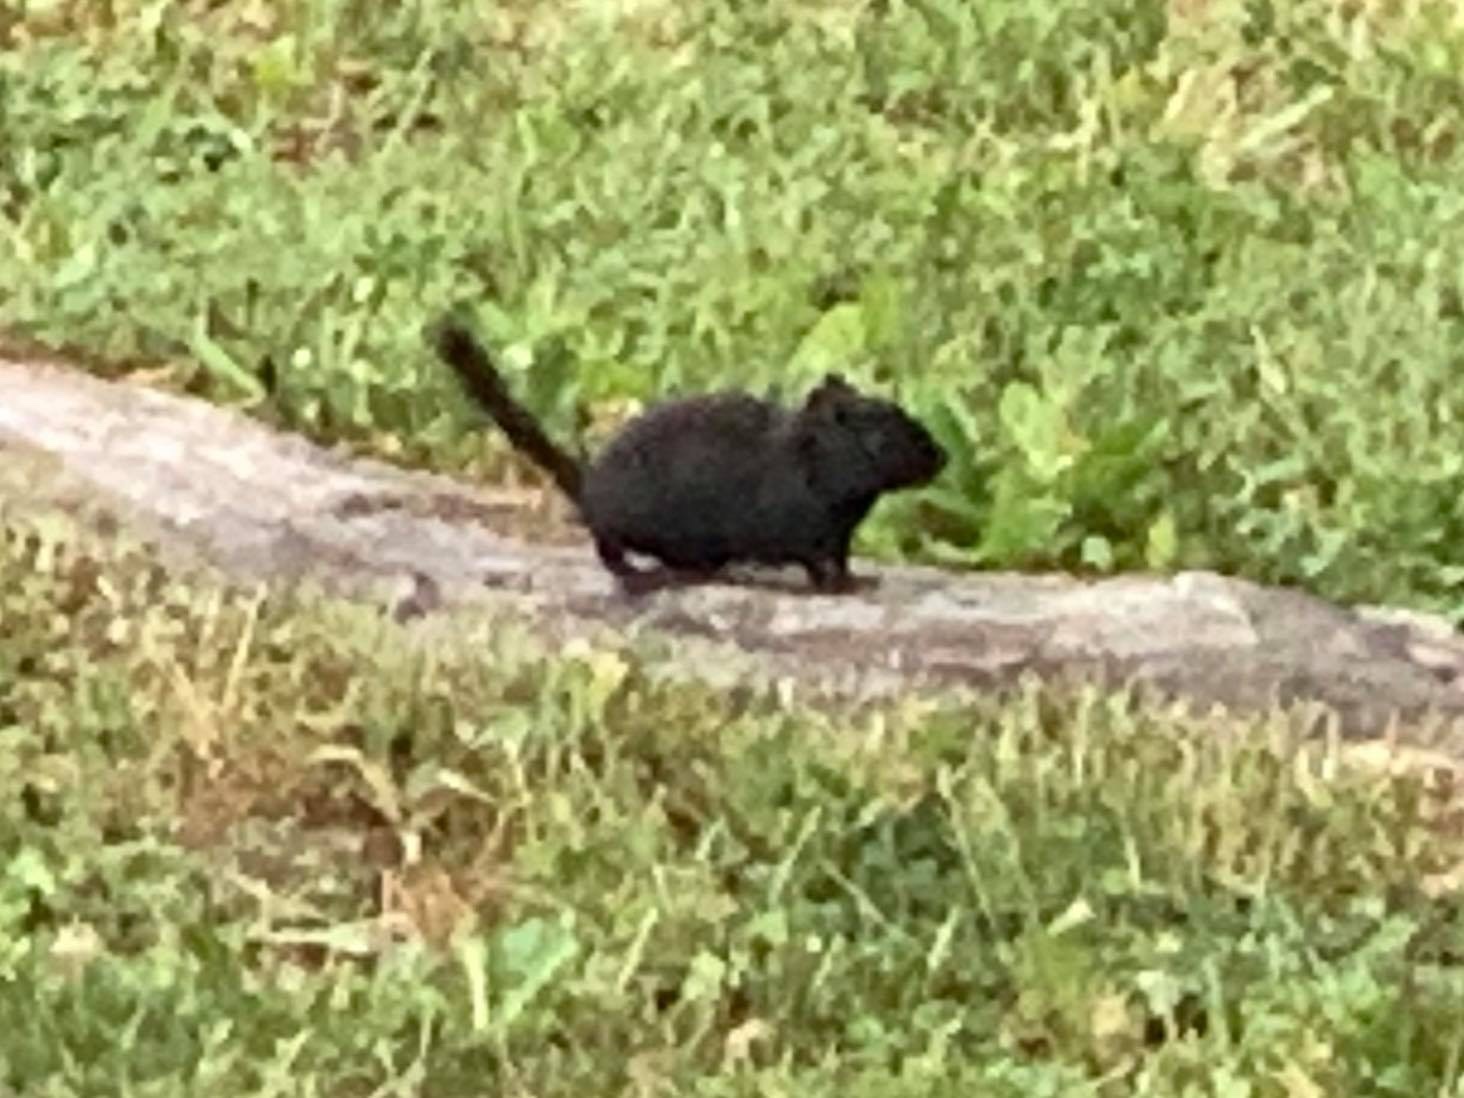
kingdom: Animalia
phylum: Chordata
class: Mammalia
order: Rodentia
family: Sciuridae
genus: Tamias
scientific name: Tamias striatus
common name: Eastern chipmunk
